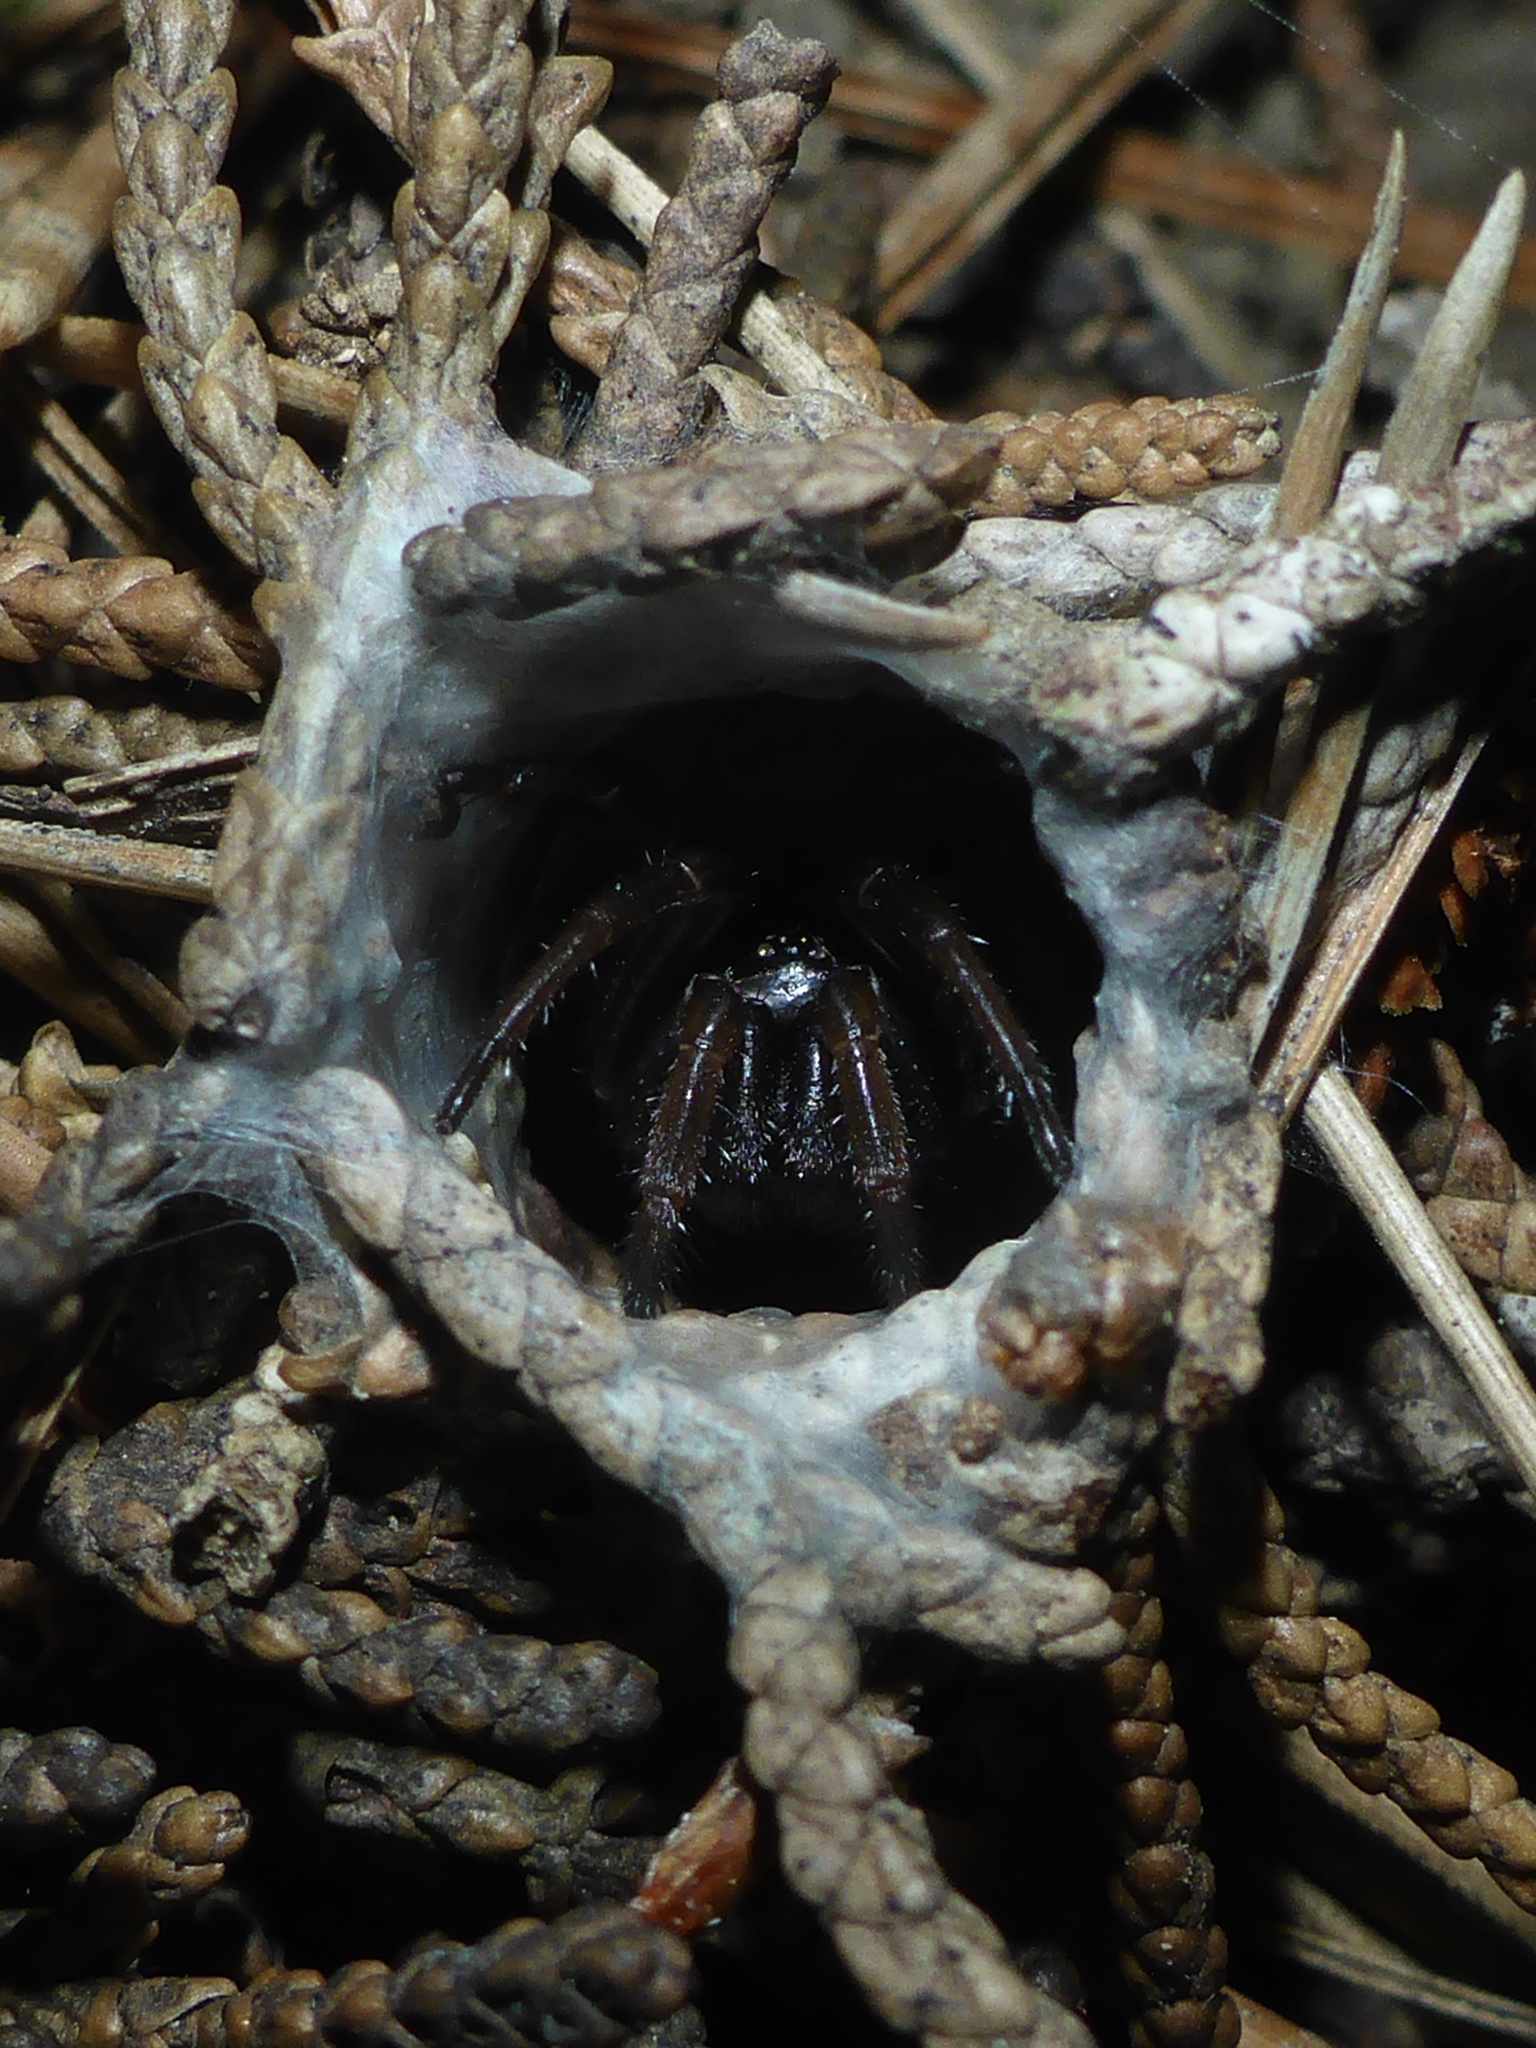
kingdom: Animalia
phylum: Arthropoda
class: Arachnida
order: Araneae
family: Antrodiaetidae
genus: Atypoides
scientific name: Atypoides riversi
